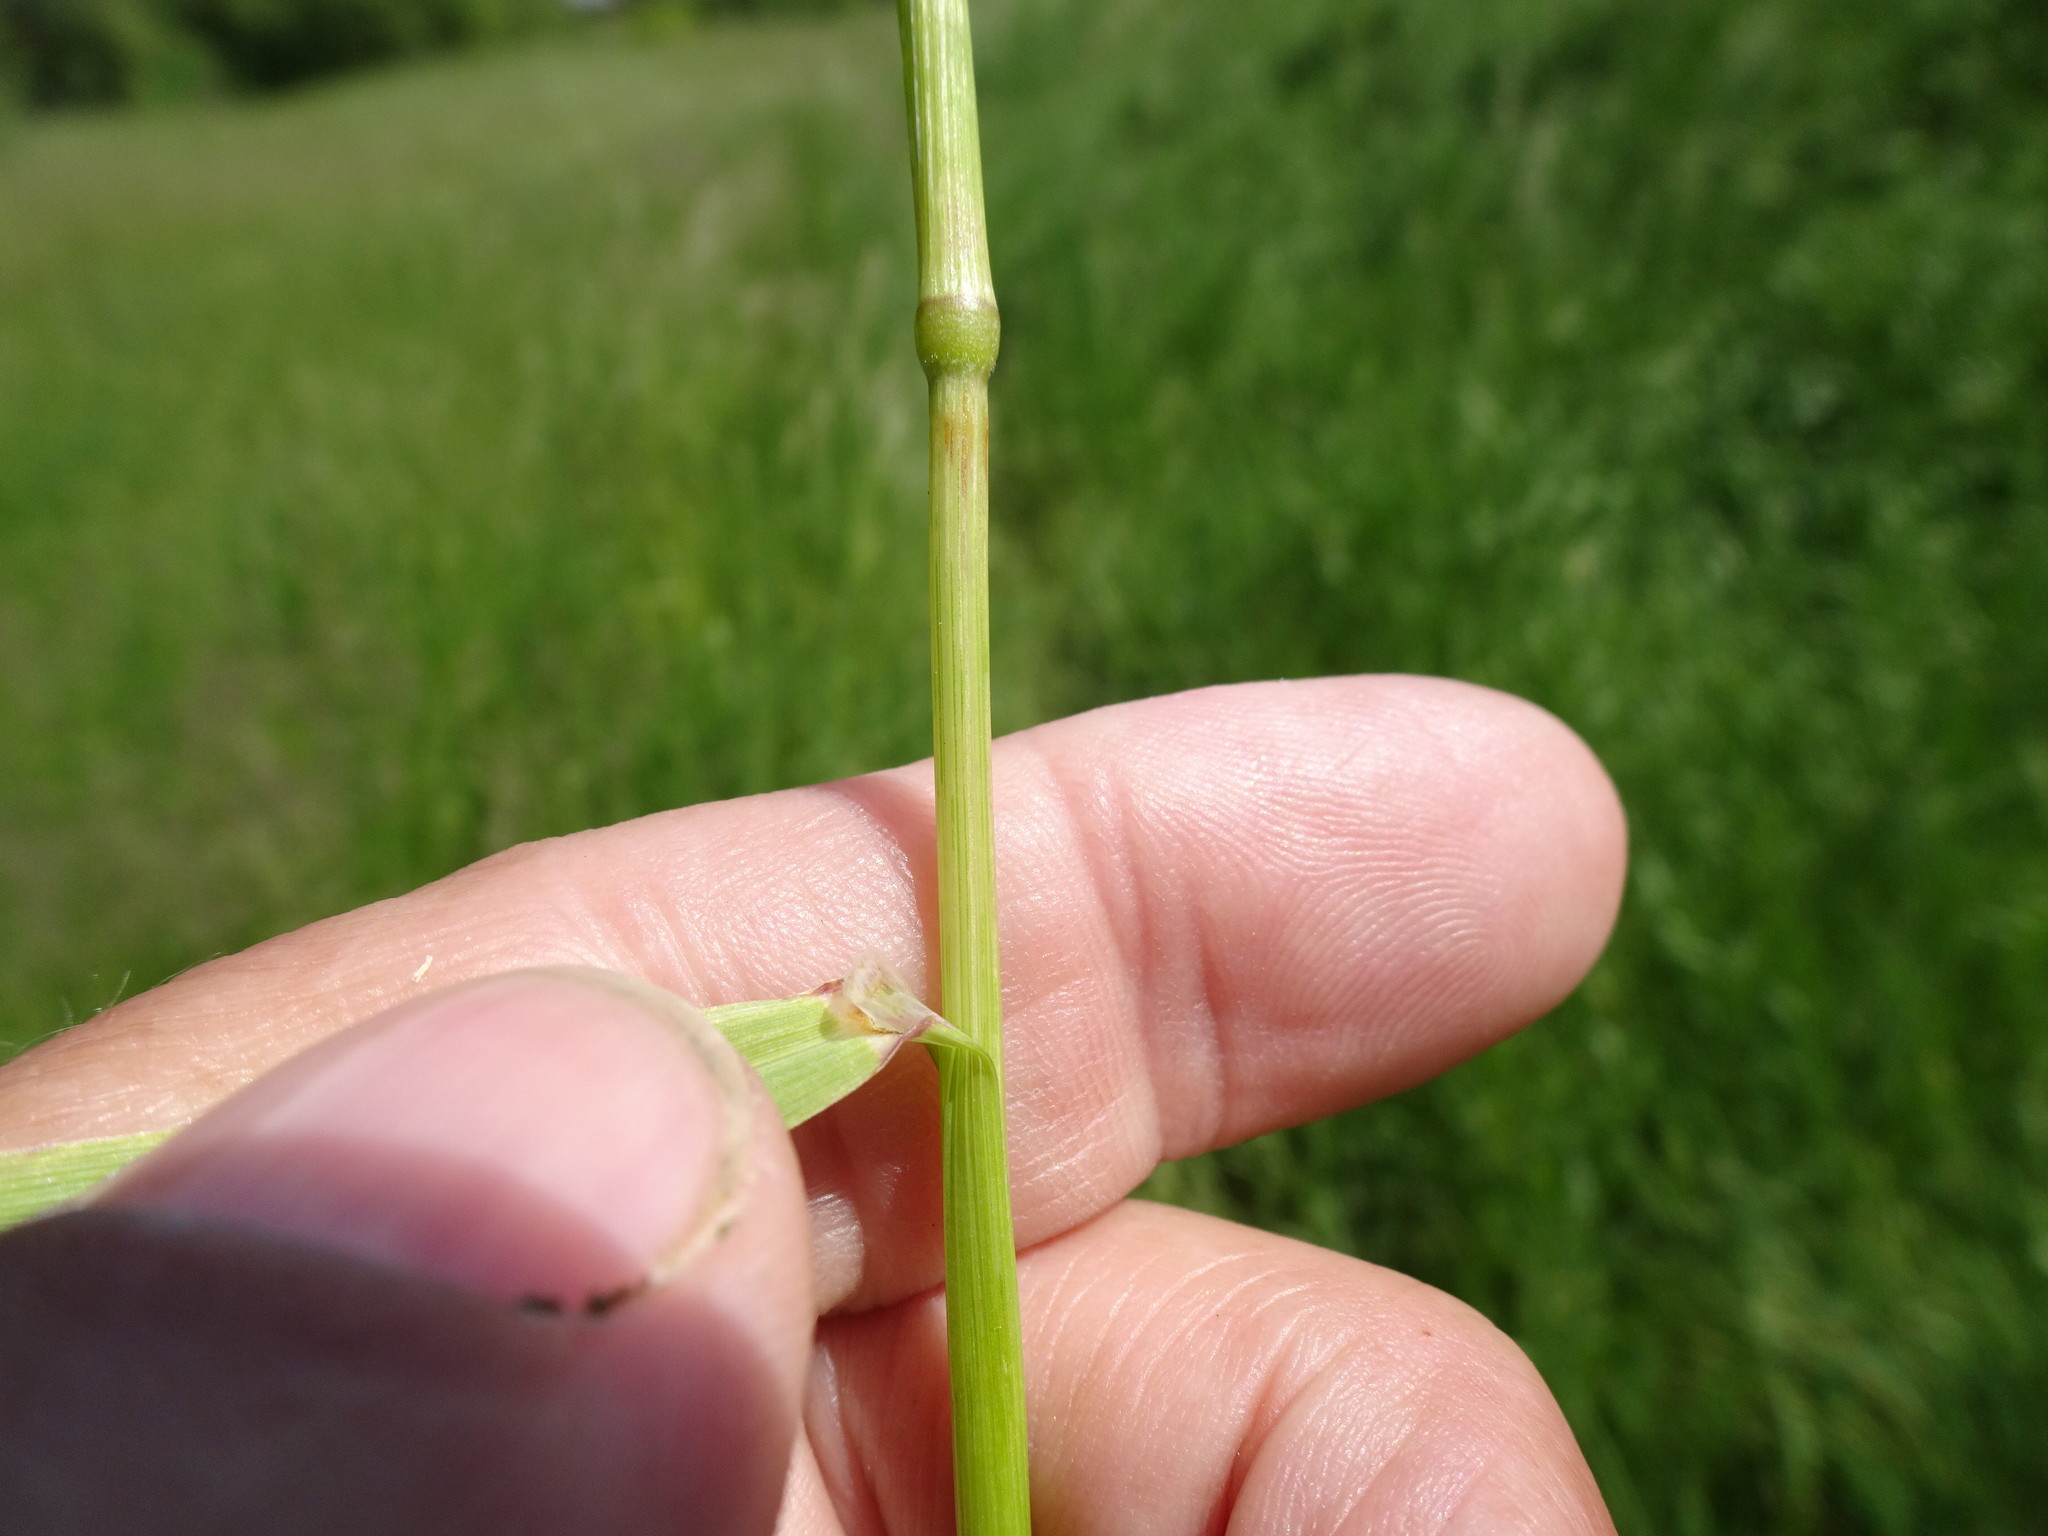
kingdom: Plantae
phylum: Tracheophyta
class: Liliopsida
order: Poales
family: Poaceae
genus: Arrhenatherum
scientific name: Arrhenatherum elatius
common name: Tall oatgrass
